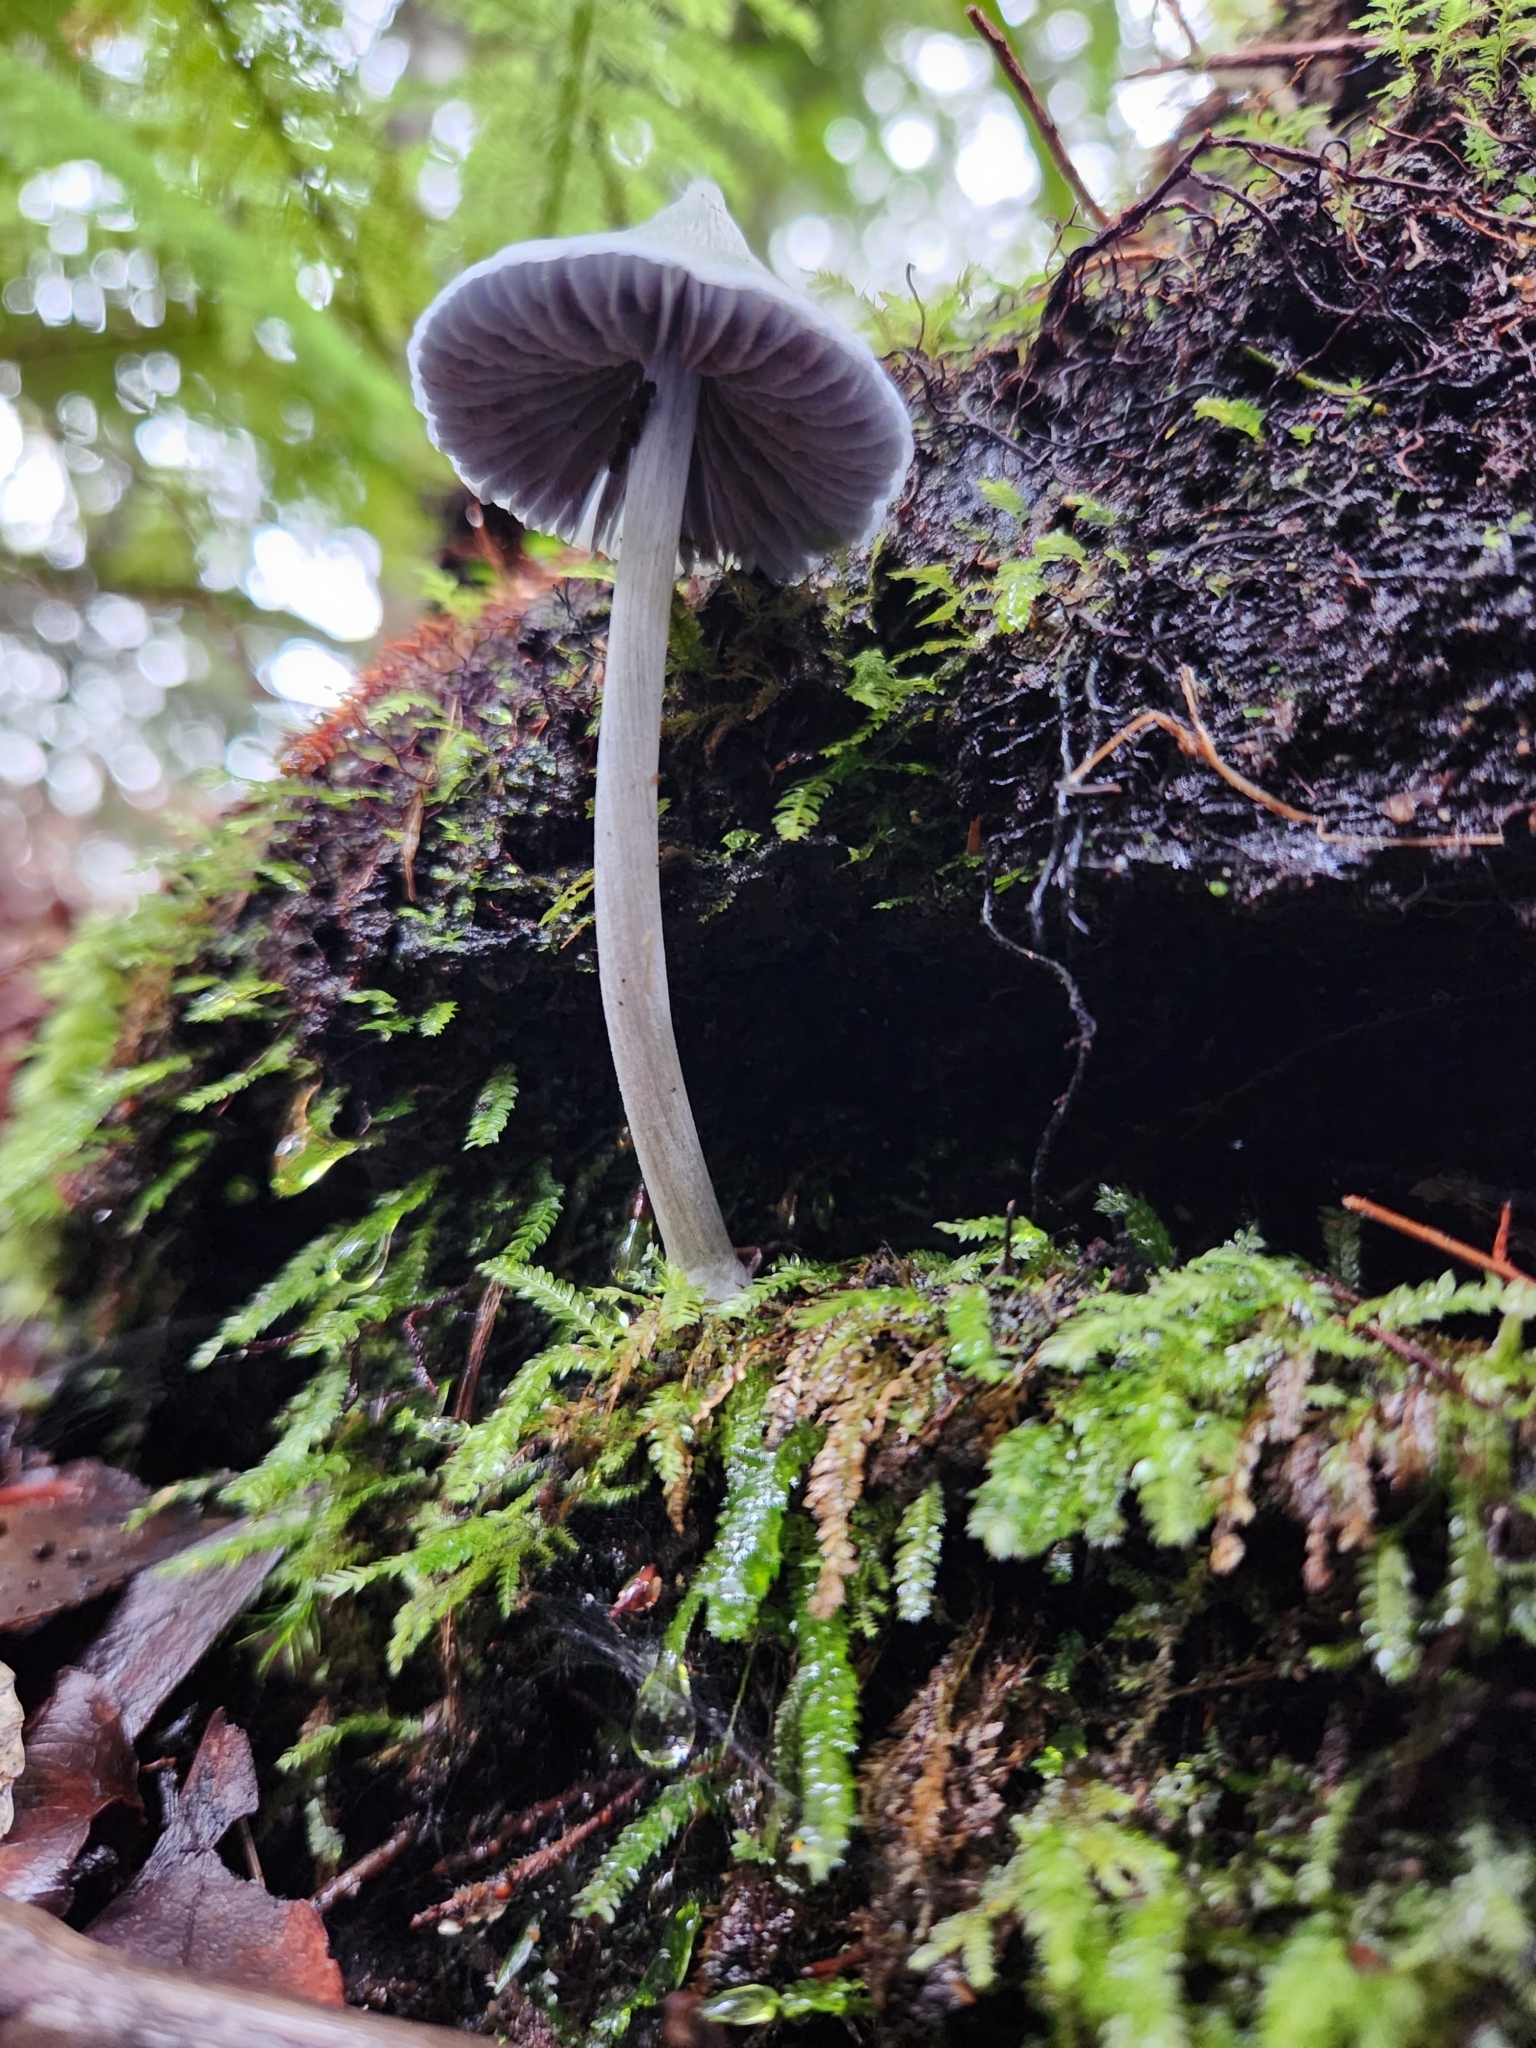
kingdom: Fungi
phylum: Basidiomycota
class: Agaricomycetes
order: Agaricales
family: Entolomataceae
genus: Entoloma
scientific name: Entoloma hochstetteri
